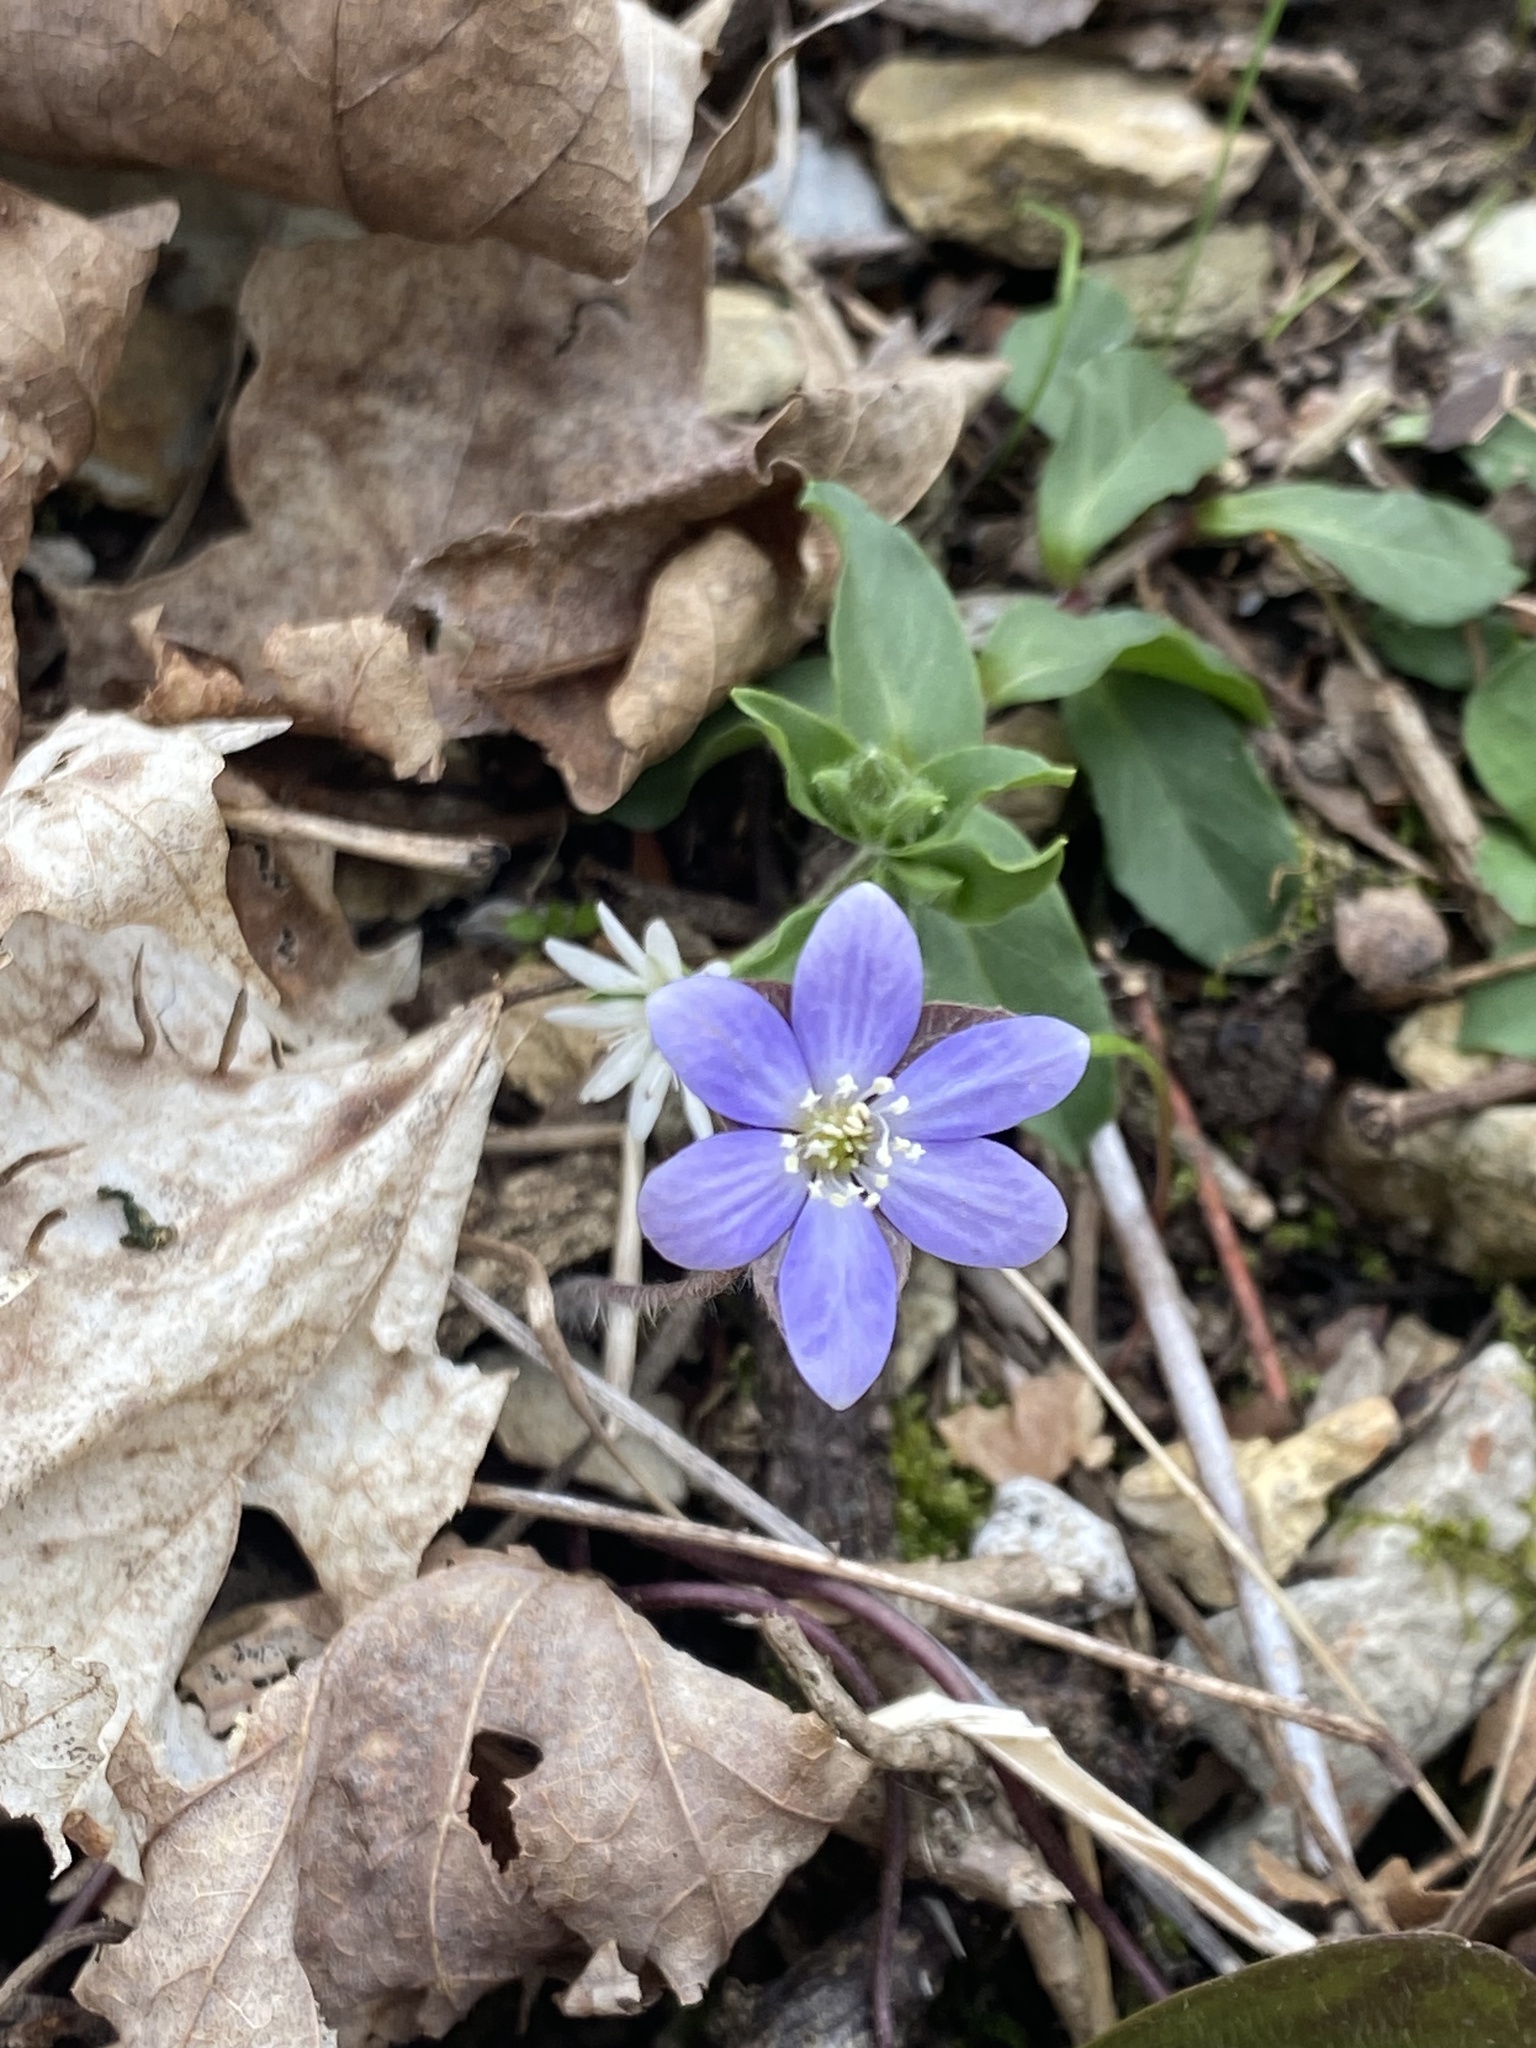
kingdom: Plantae
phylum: Tracheophyta
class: Magnoliopsida
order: Ranunculales
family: Ranunculaceae
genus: Hepatica
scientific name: Hepatica americana
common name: American hepatica
